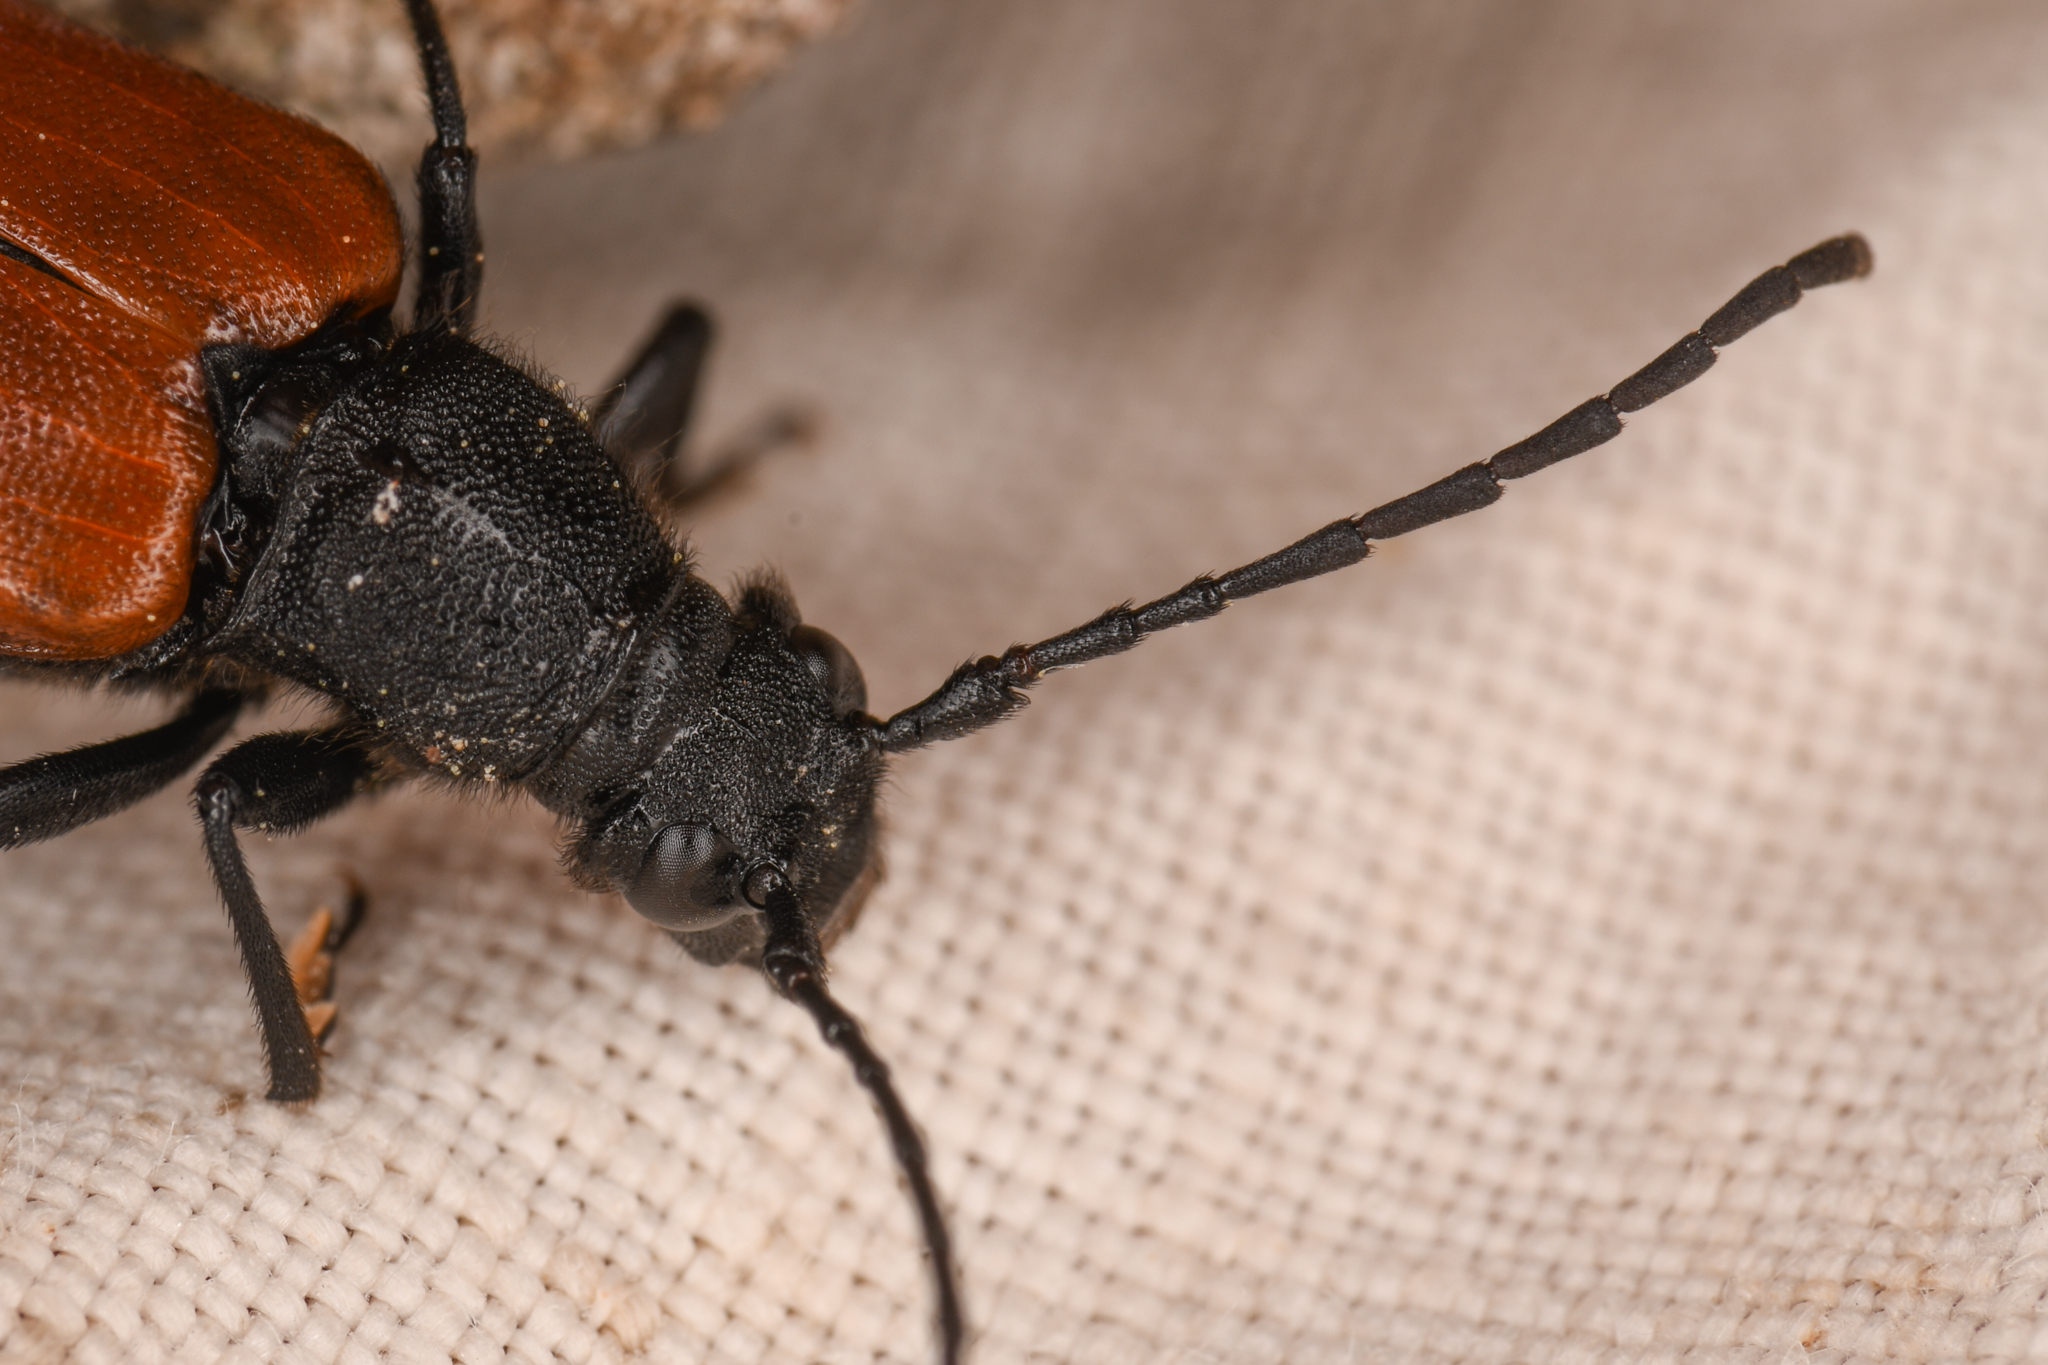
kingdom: Animalia
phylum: Arthropoda
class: Insecta
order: Coleoptera
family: Cerambycidae
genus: Pygoleptura
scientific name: Pygoleptura nigrella
